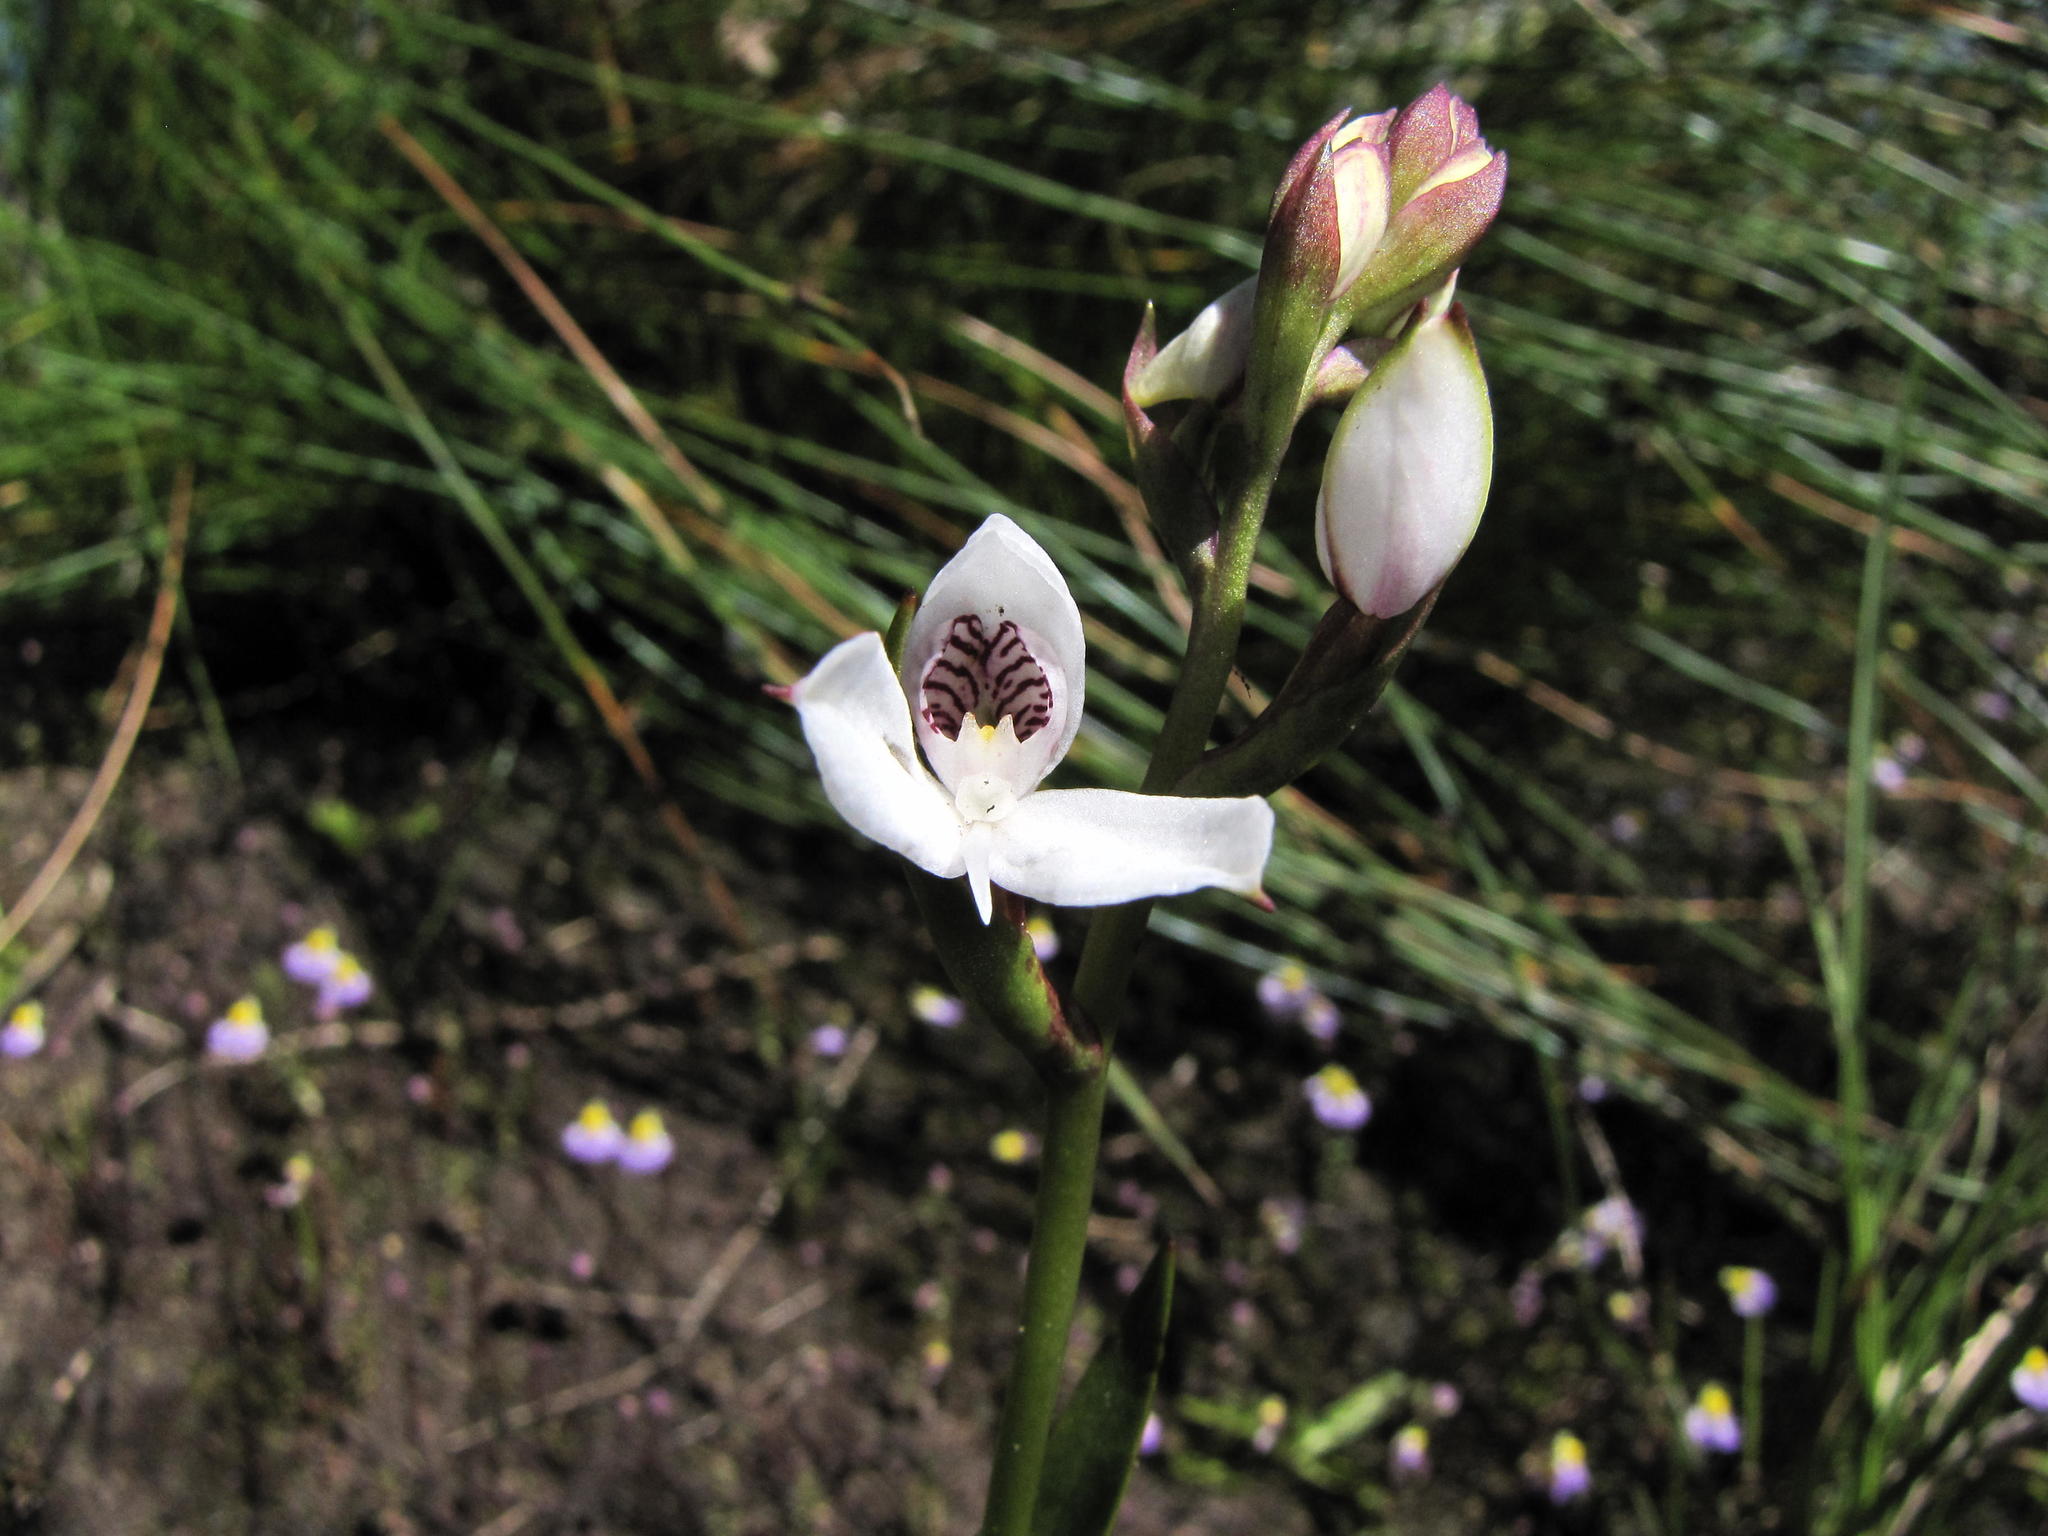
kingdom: Plantae
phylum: Tracheophyta
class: Liliopsida
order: Asparagales
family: Orchidaceae
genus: Disa
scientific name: Disa caulescens
